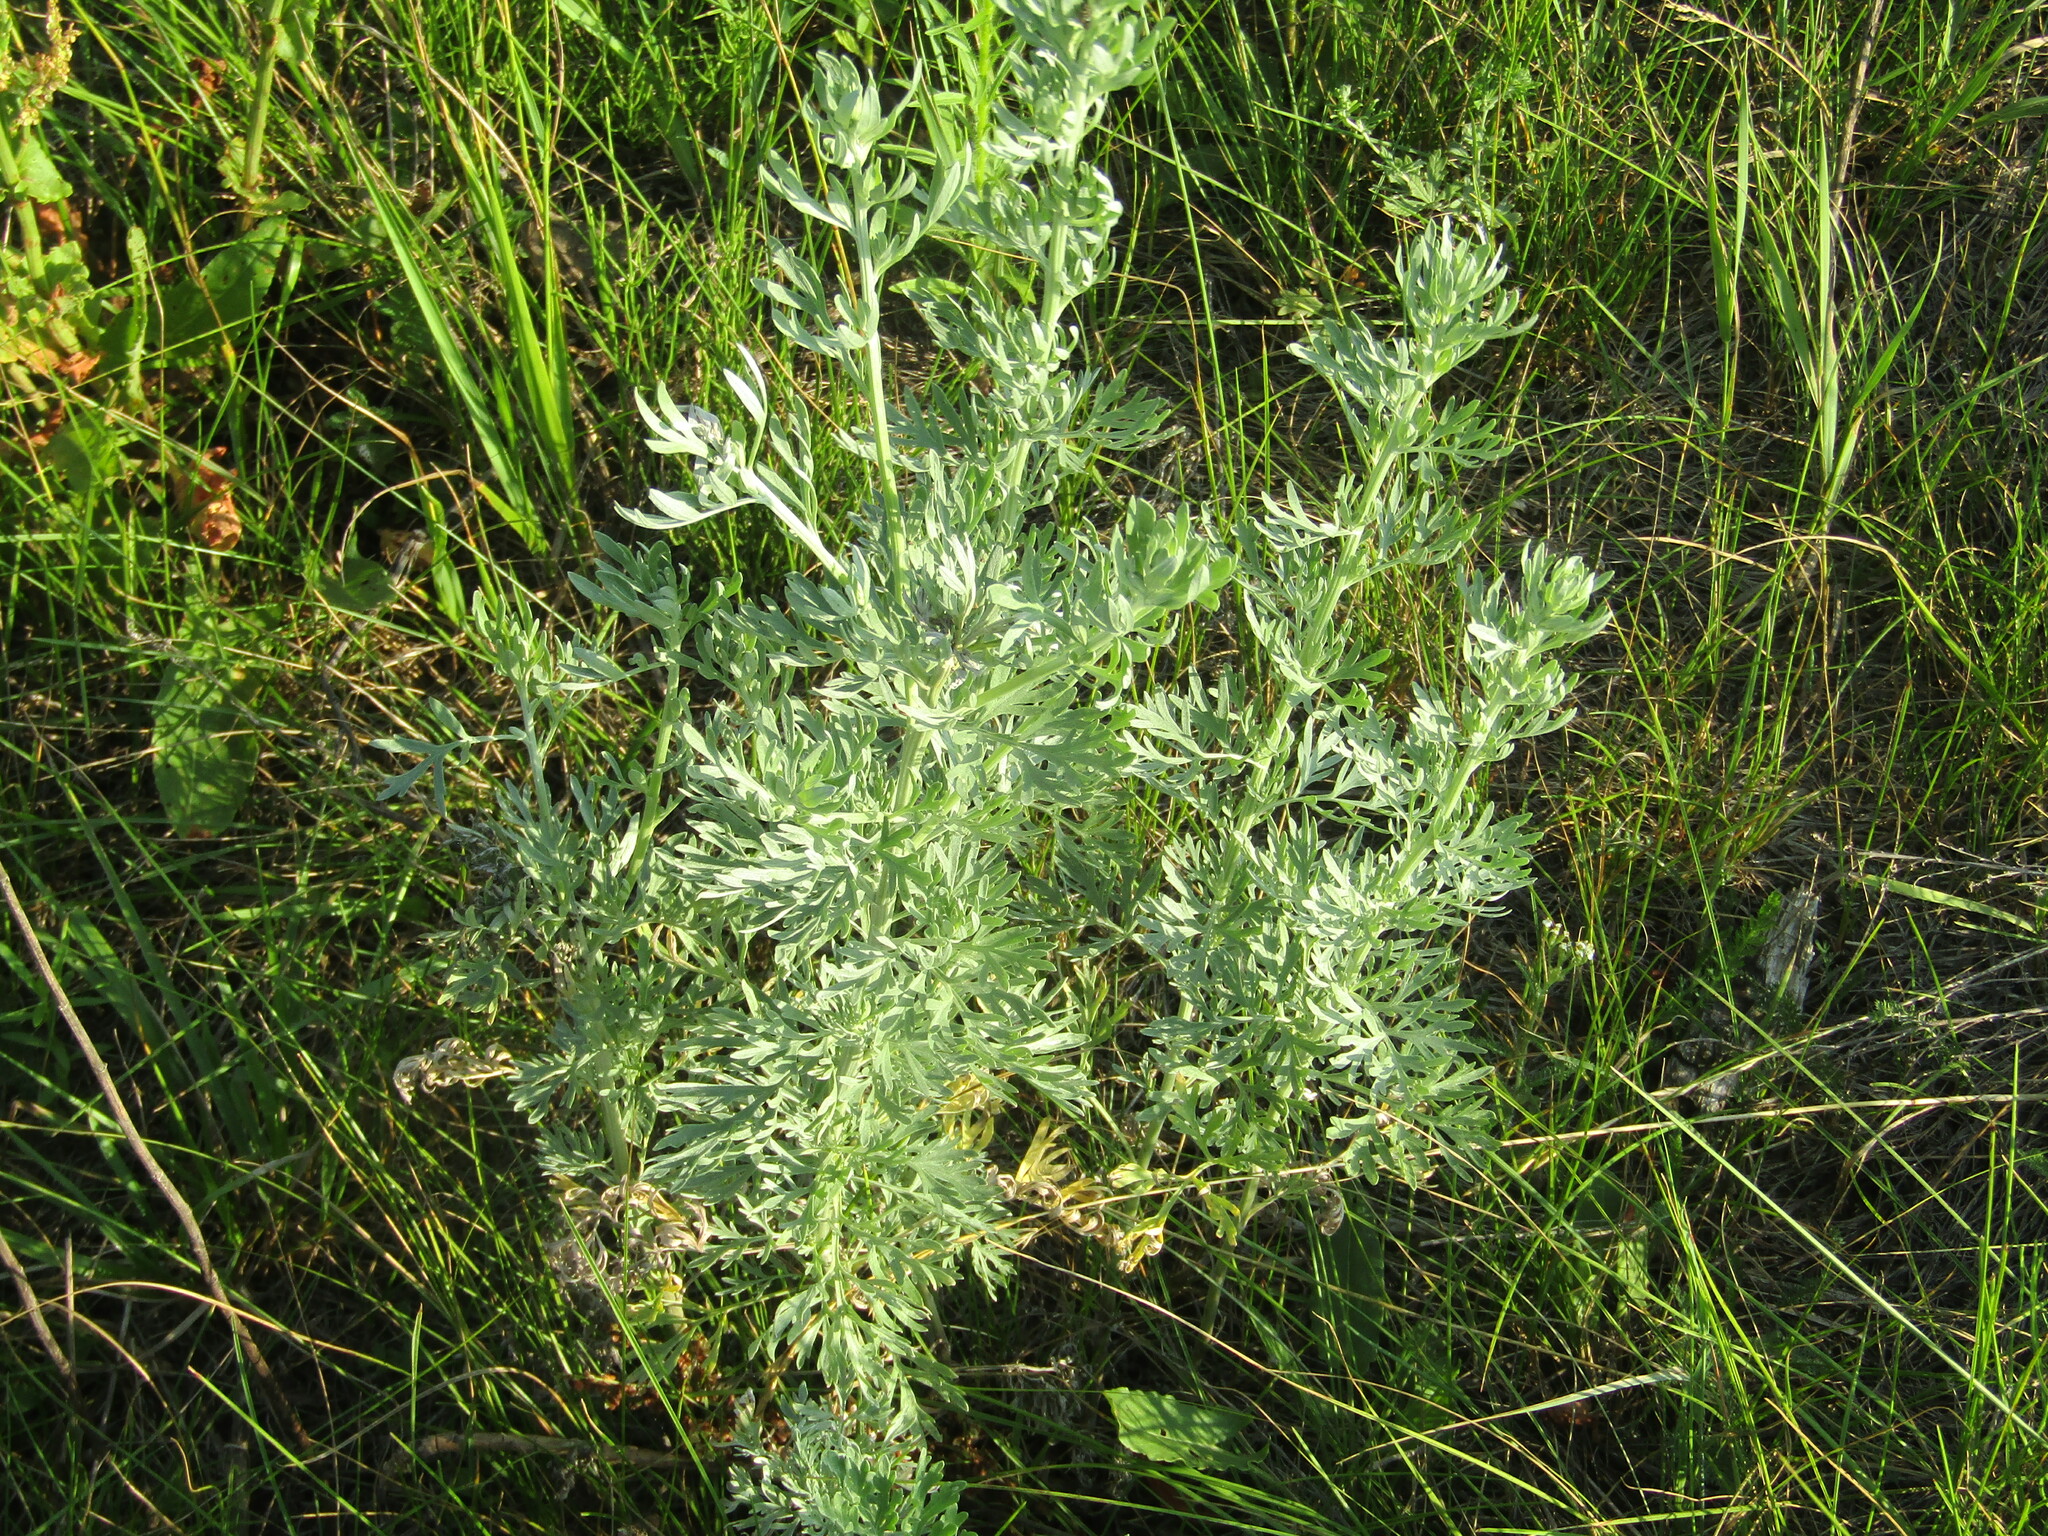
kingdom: Plantae
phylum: Tracheophyta
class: Magnoliopsida
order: Asterales
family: Asteraceae
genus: Artemisia
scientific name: Artemisia absinthium
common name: Wormwood
